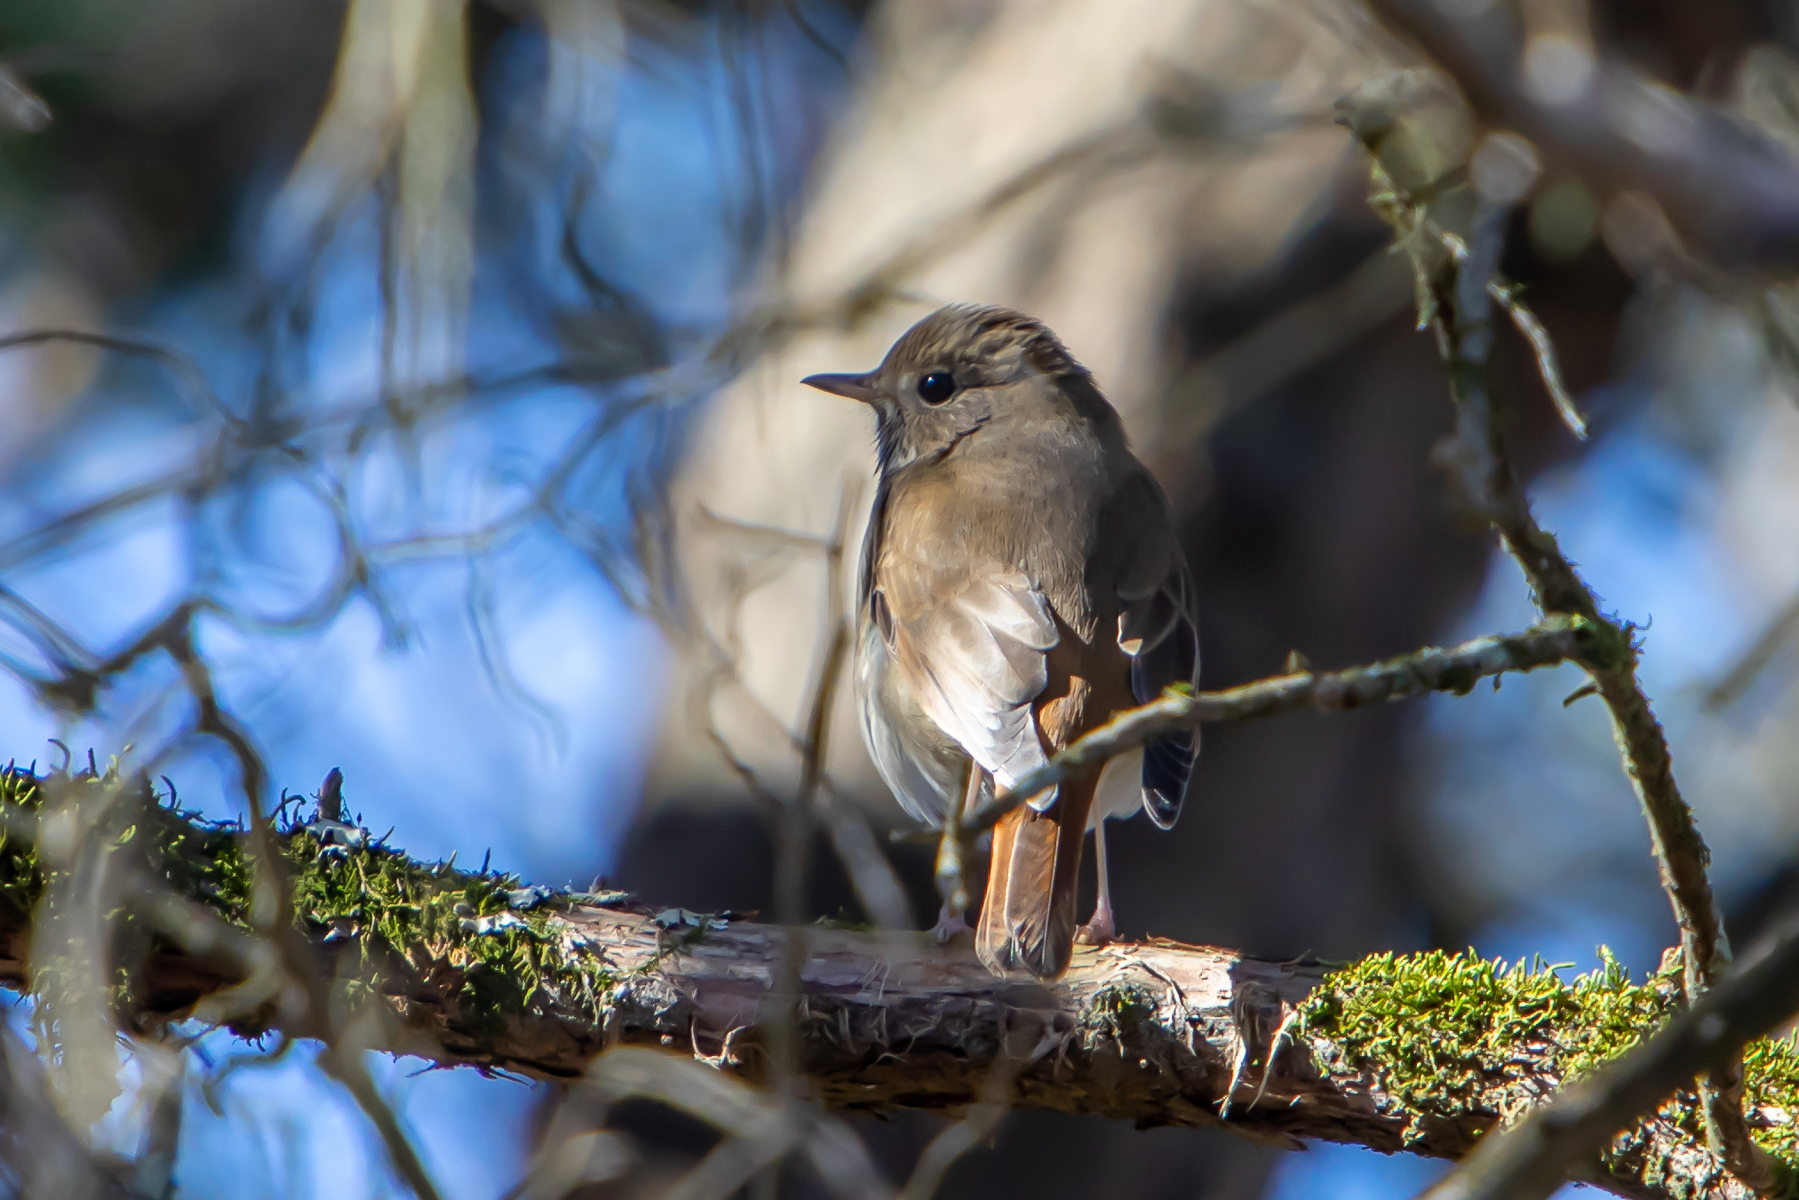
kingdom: Animalia
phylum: Chordata
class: Aves
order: Passeriformes
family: Turdidae
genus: Catharus
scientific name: Catharus guttatus
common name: Hermit thrush
